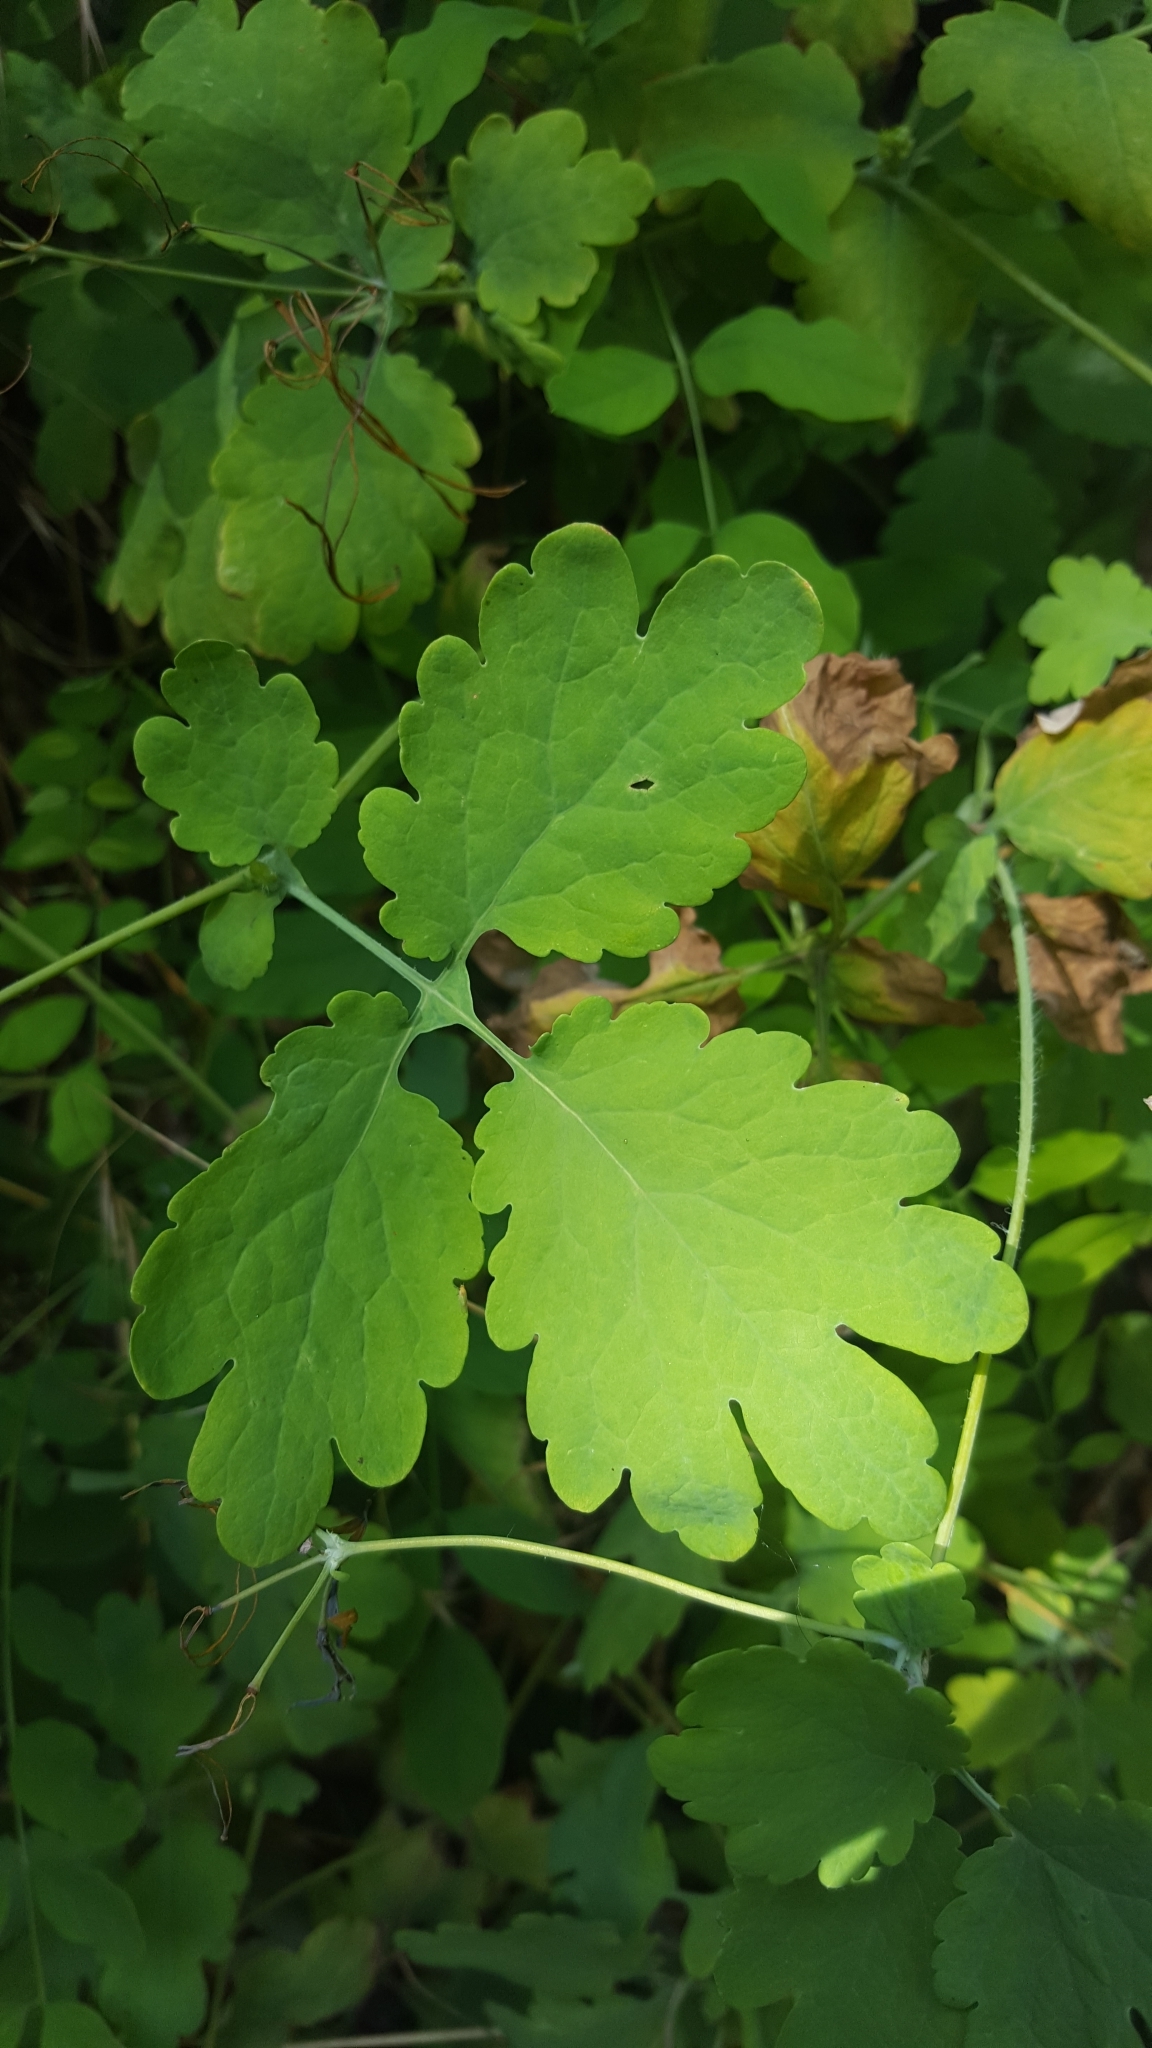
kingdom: Plantae
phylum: Tracheophyta
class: Magnoliopsida
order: Ranunculales
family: Papaveraceae
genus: Chelidonium
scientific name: Chelidonium majus
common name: Greater celandine
